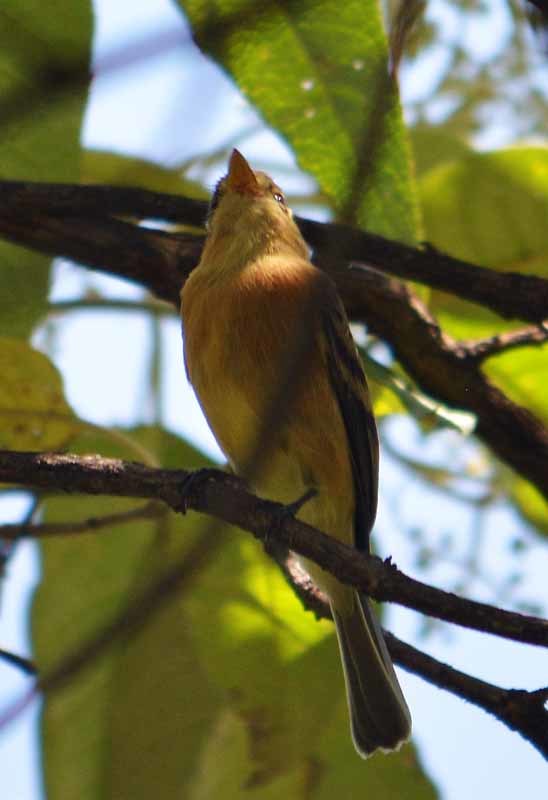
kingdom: Animalia
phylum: Chordata
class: Aves
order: Passeriformes
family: Tyrannidae
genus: Empidonax
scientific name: Empidonax fulvifrons
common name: Buff-breasted flycatcher
